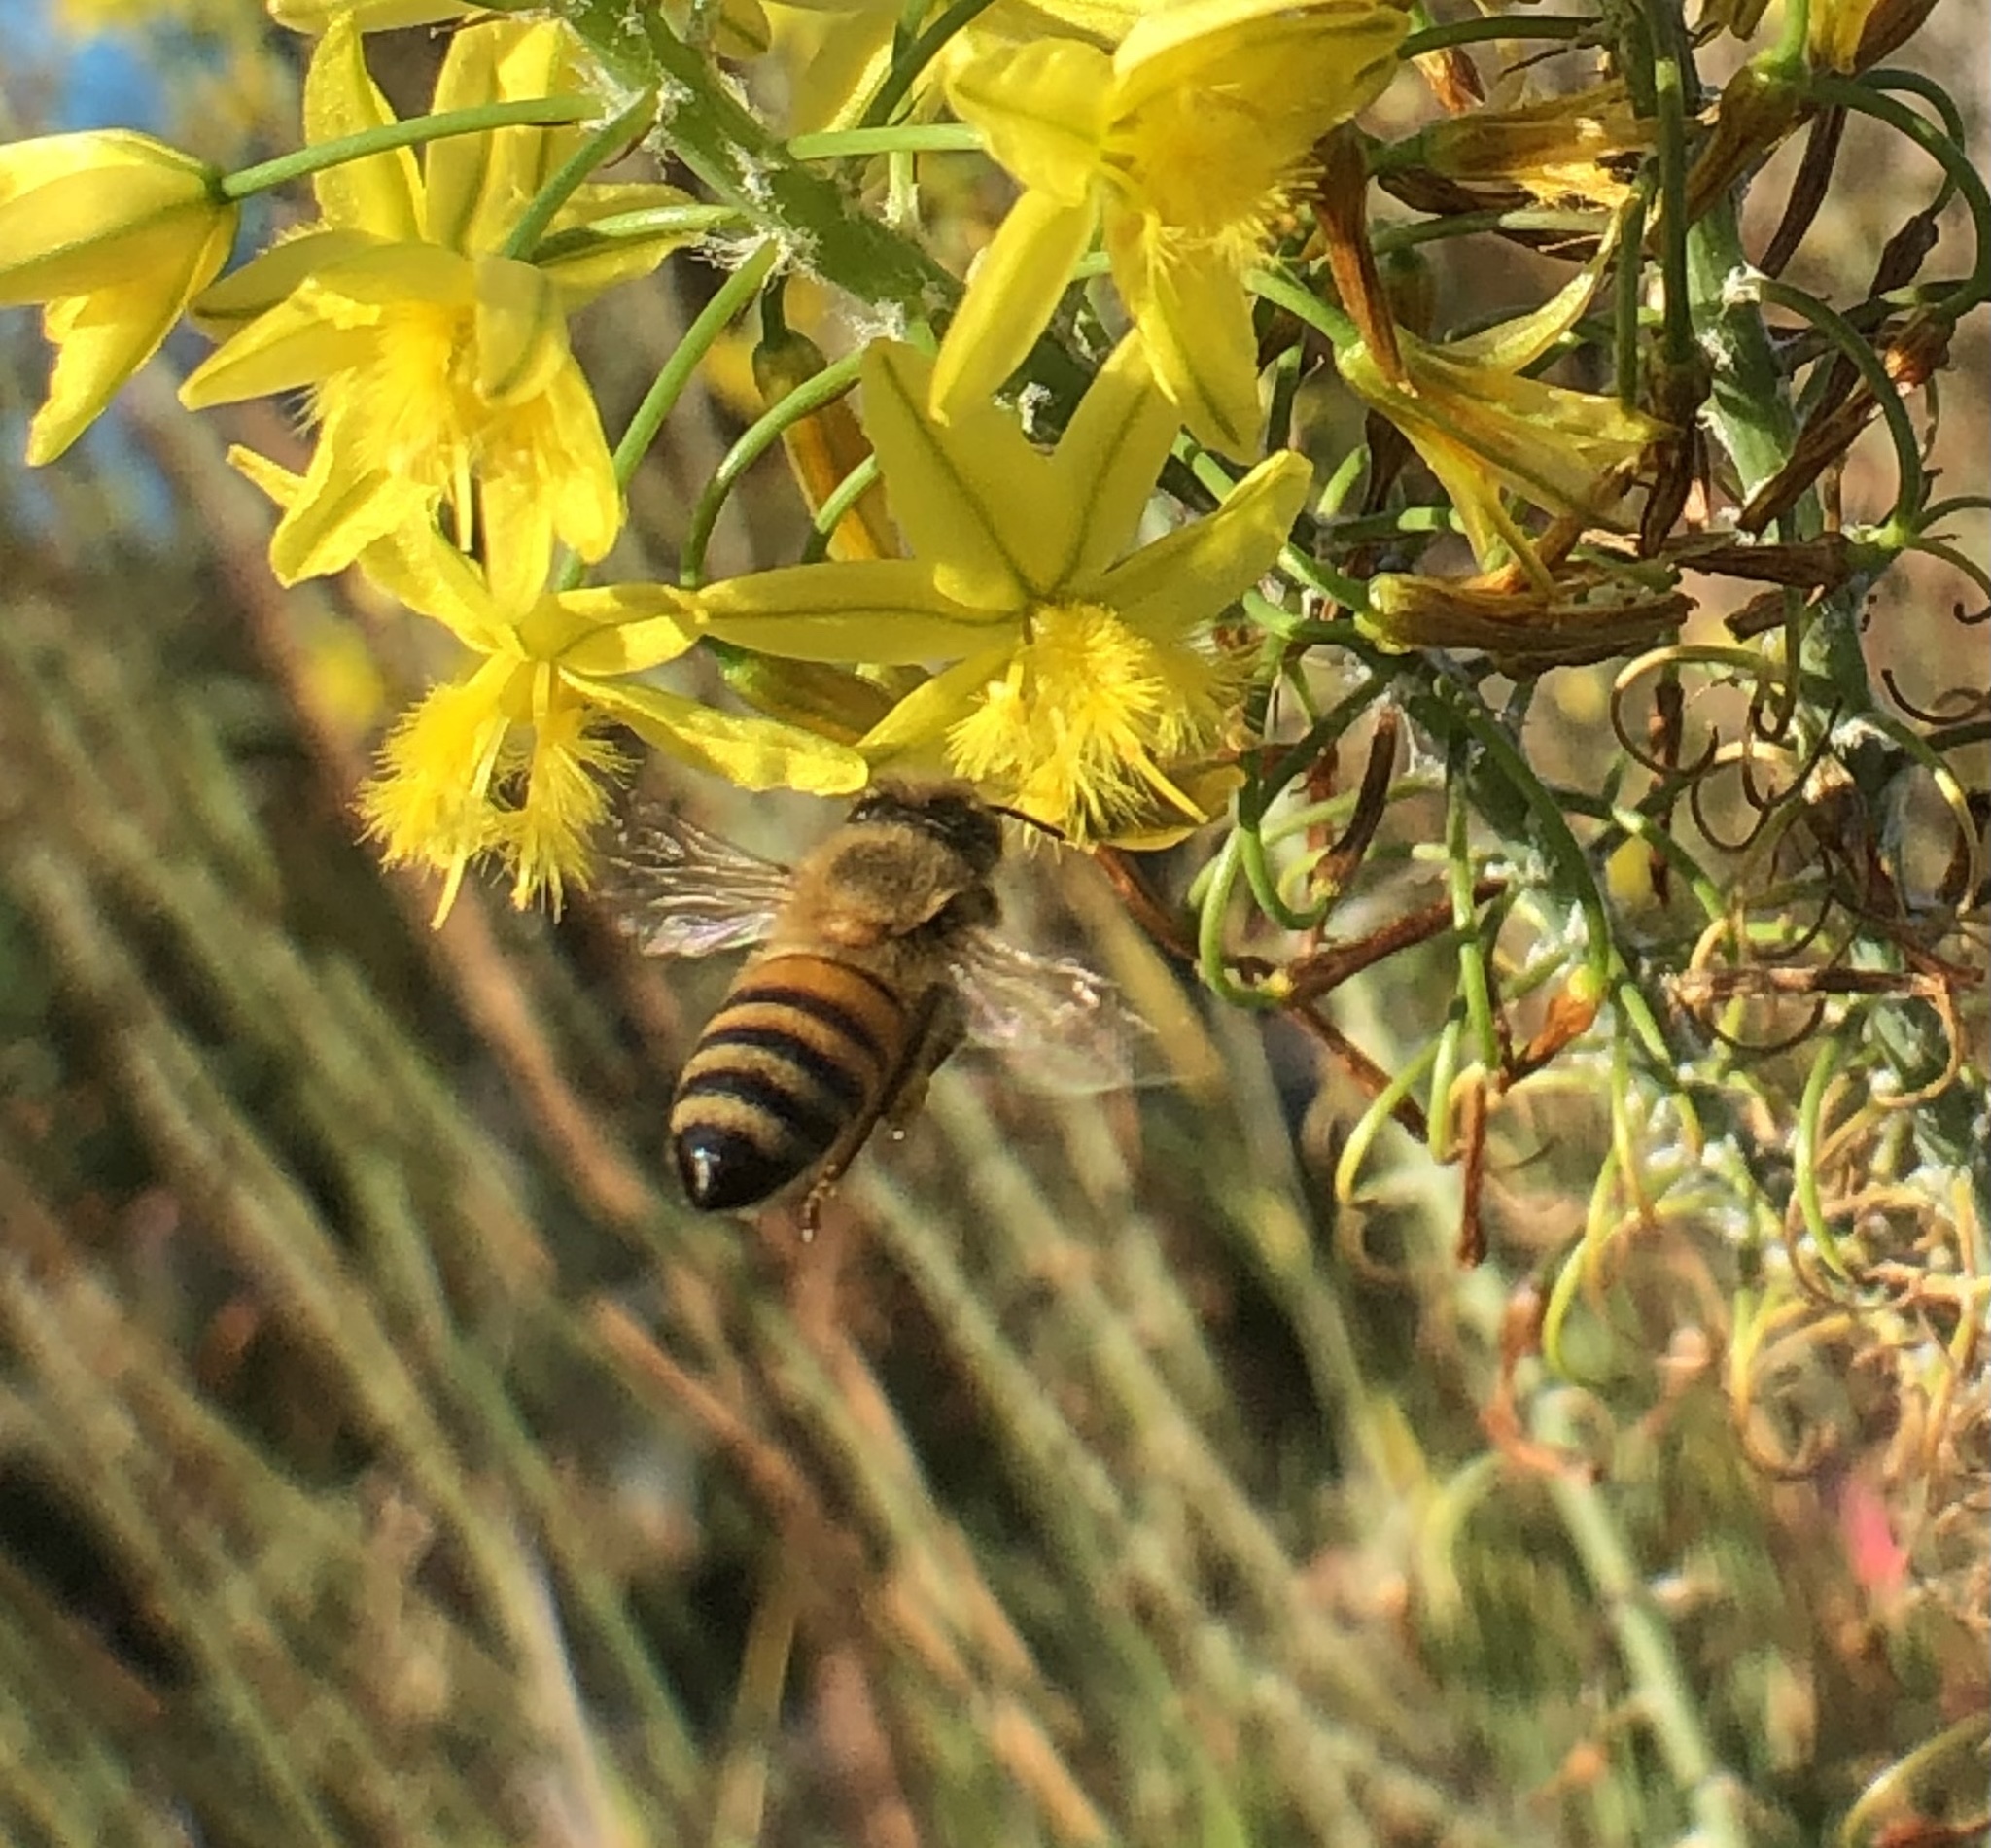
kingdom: Animalia
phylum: Arthropoda
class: Insecta
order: Hymenoptera
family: Apidae
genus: Apis
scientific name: Apis mellifera
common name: Honey bee
